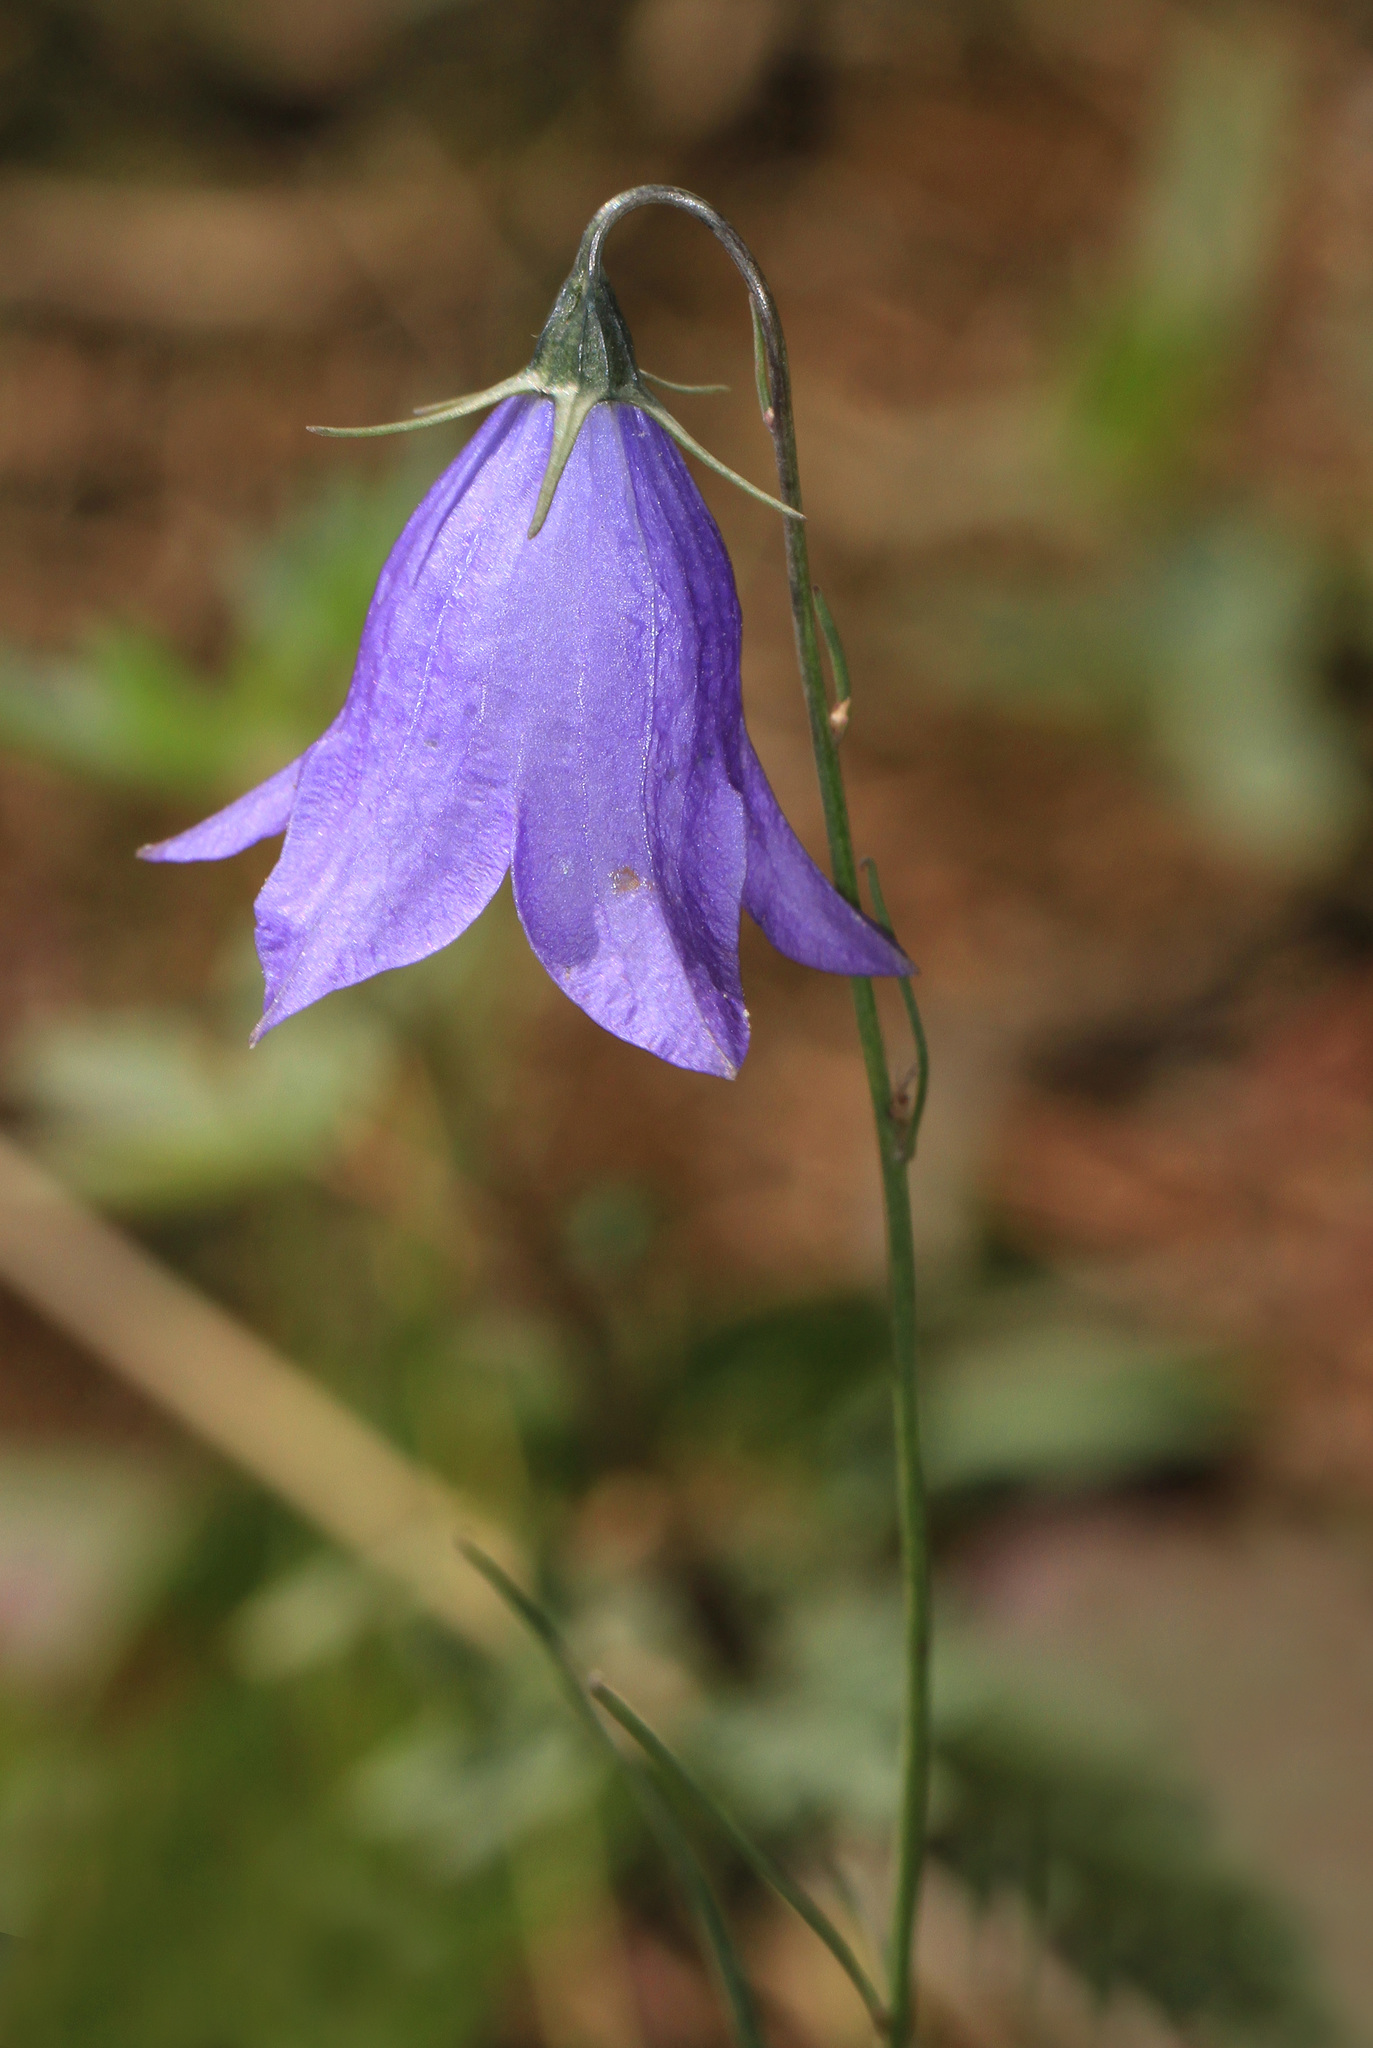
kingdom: Plantae
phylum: Tracheophyta
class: Magnoliopsida
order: Asterales
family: Campanulaceae
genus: Campanula
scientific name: Campanula alaskana
